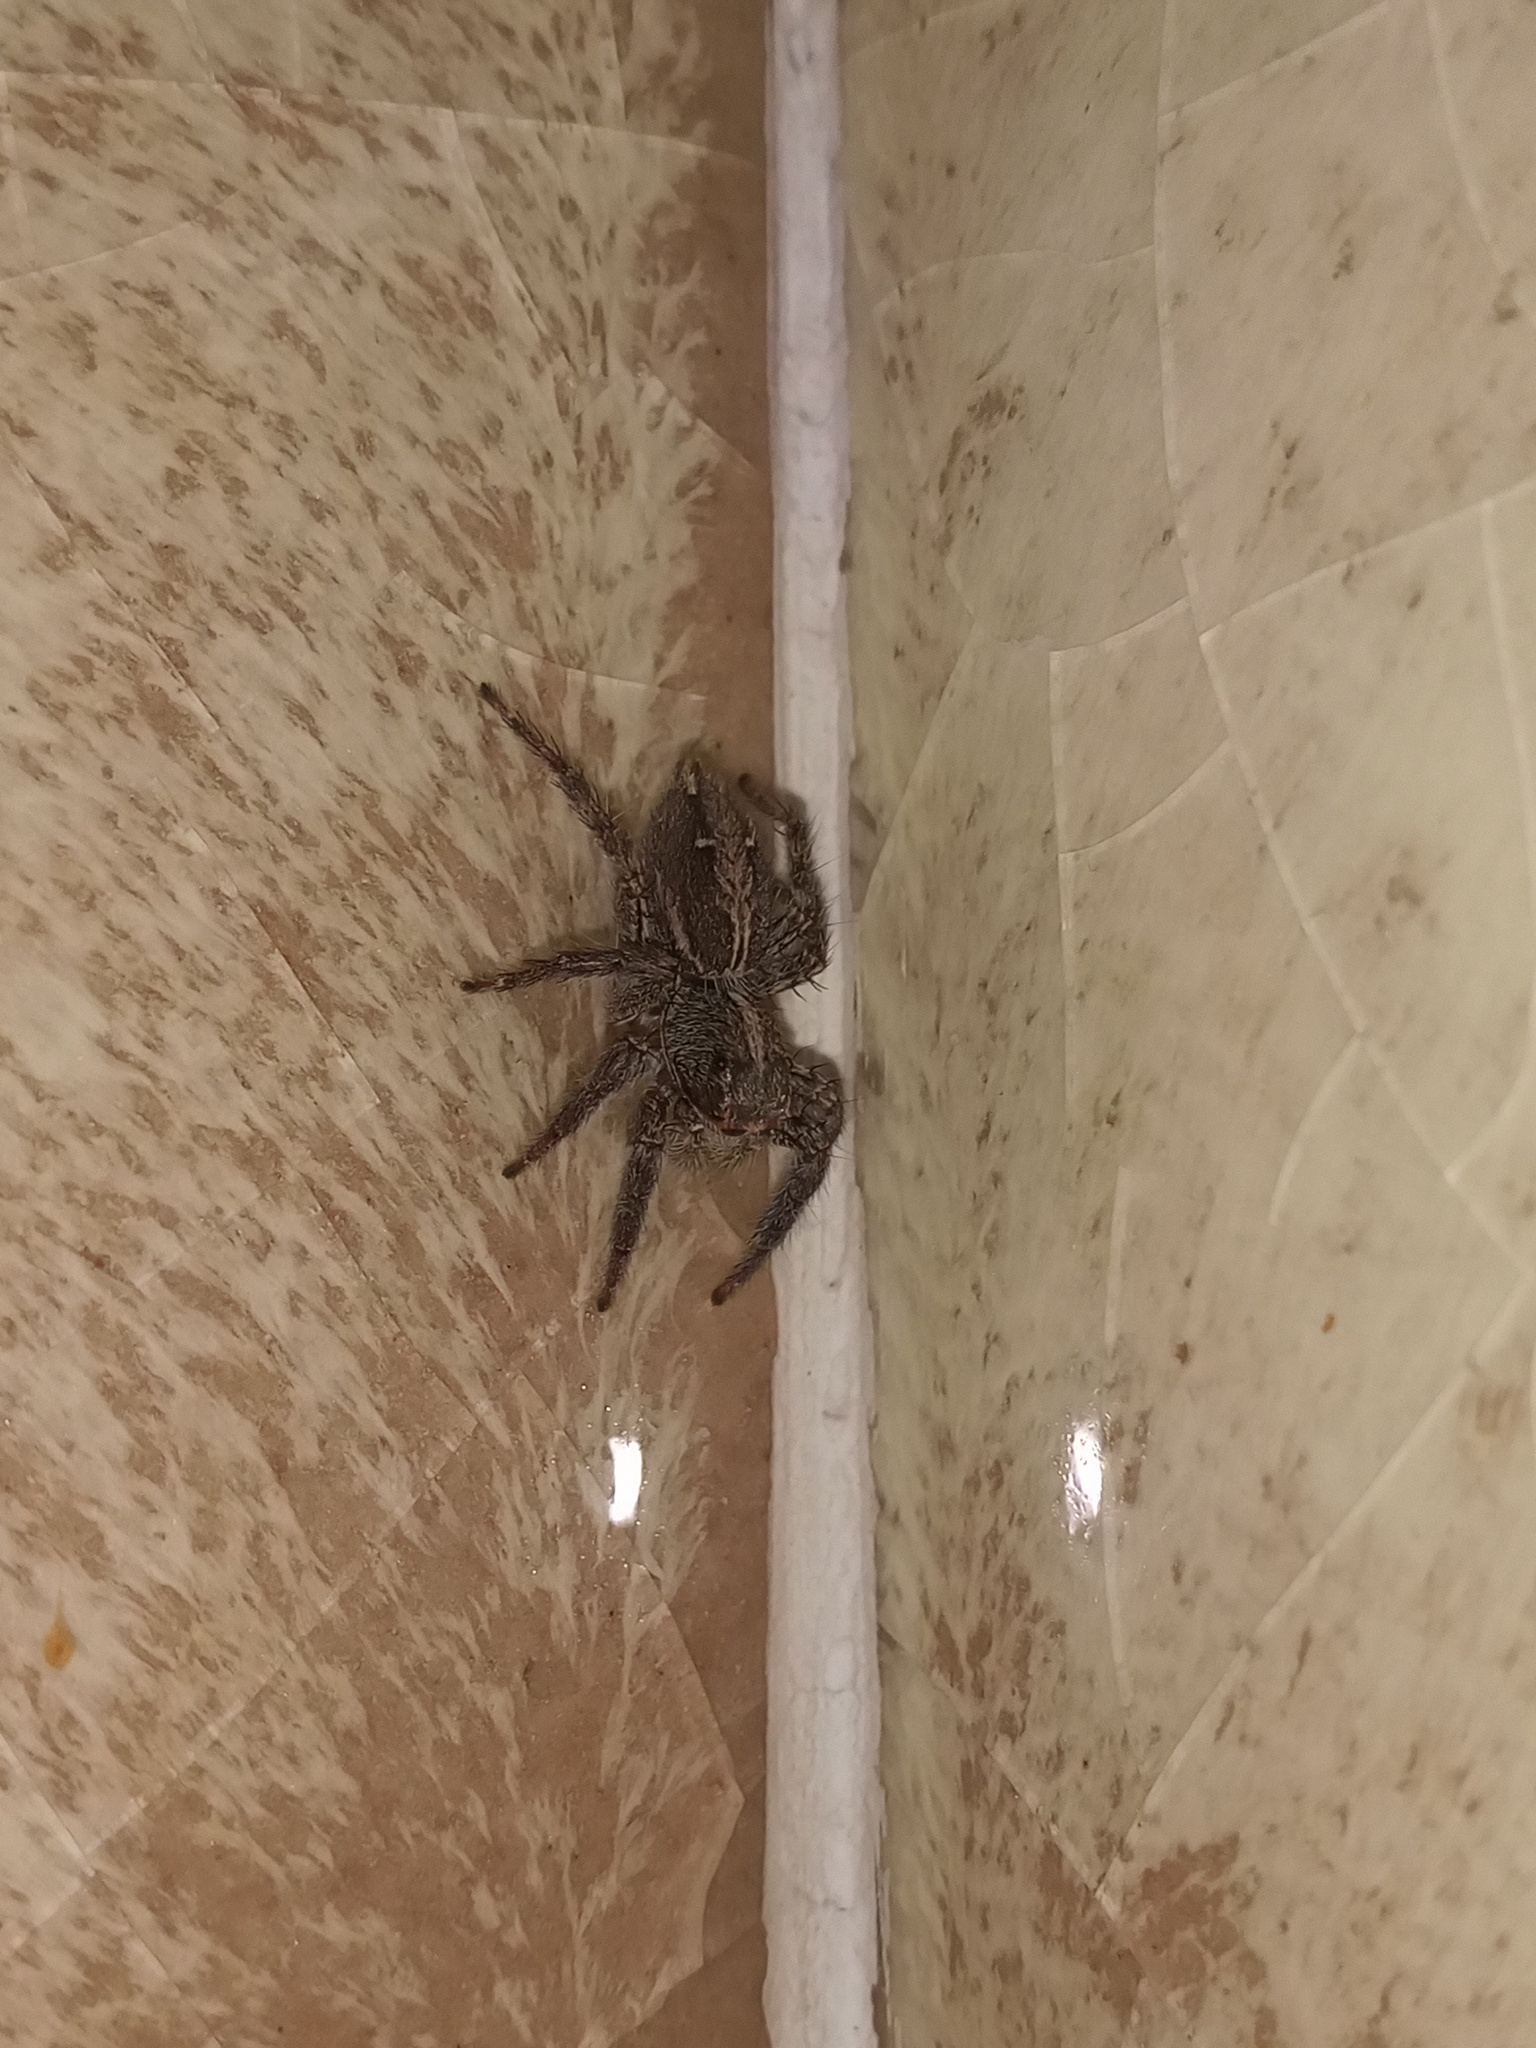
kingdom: Animalia
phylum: Arthropoda
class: Arachnida
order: Araneae
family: Salticidae
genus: Plexippus
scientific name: Plexippus paykulli
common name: Pantropical jumper
